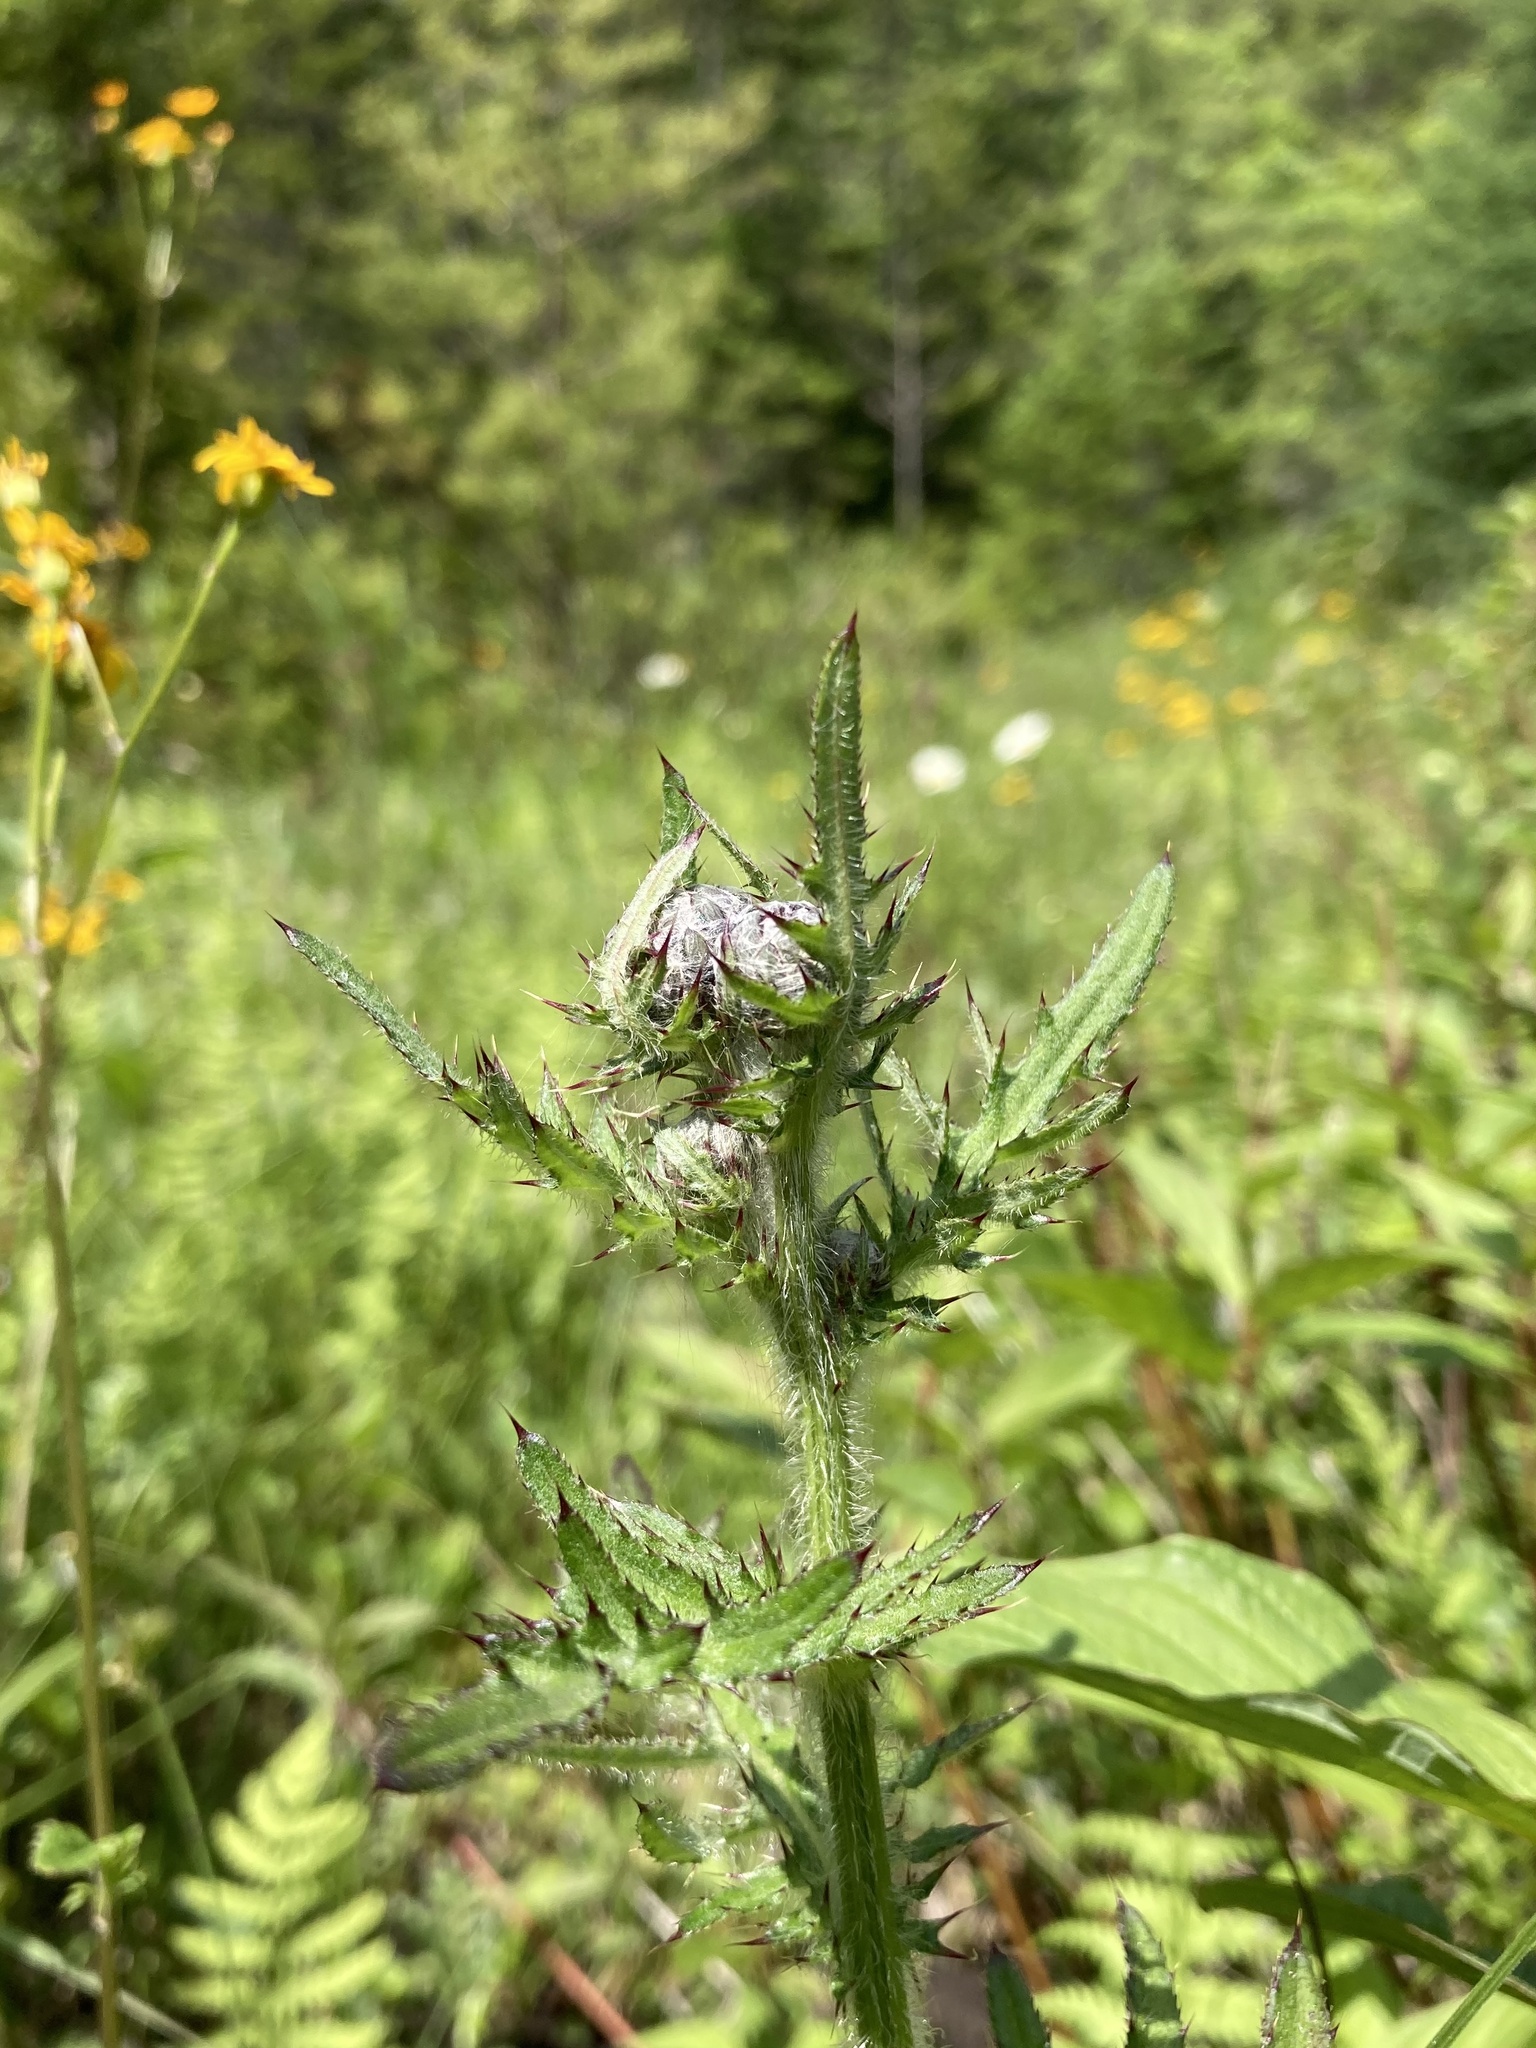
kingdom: Plantae
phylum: Tracheophyta
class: Magnoliopsida
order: Asterales
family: Asteraceae
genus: Cirsium
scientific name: Cirsium muticum
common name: Dunce-nettle
